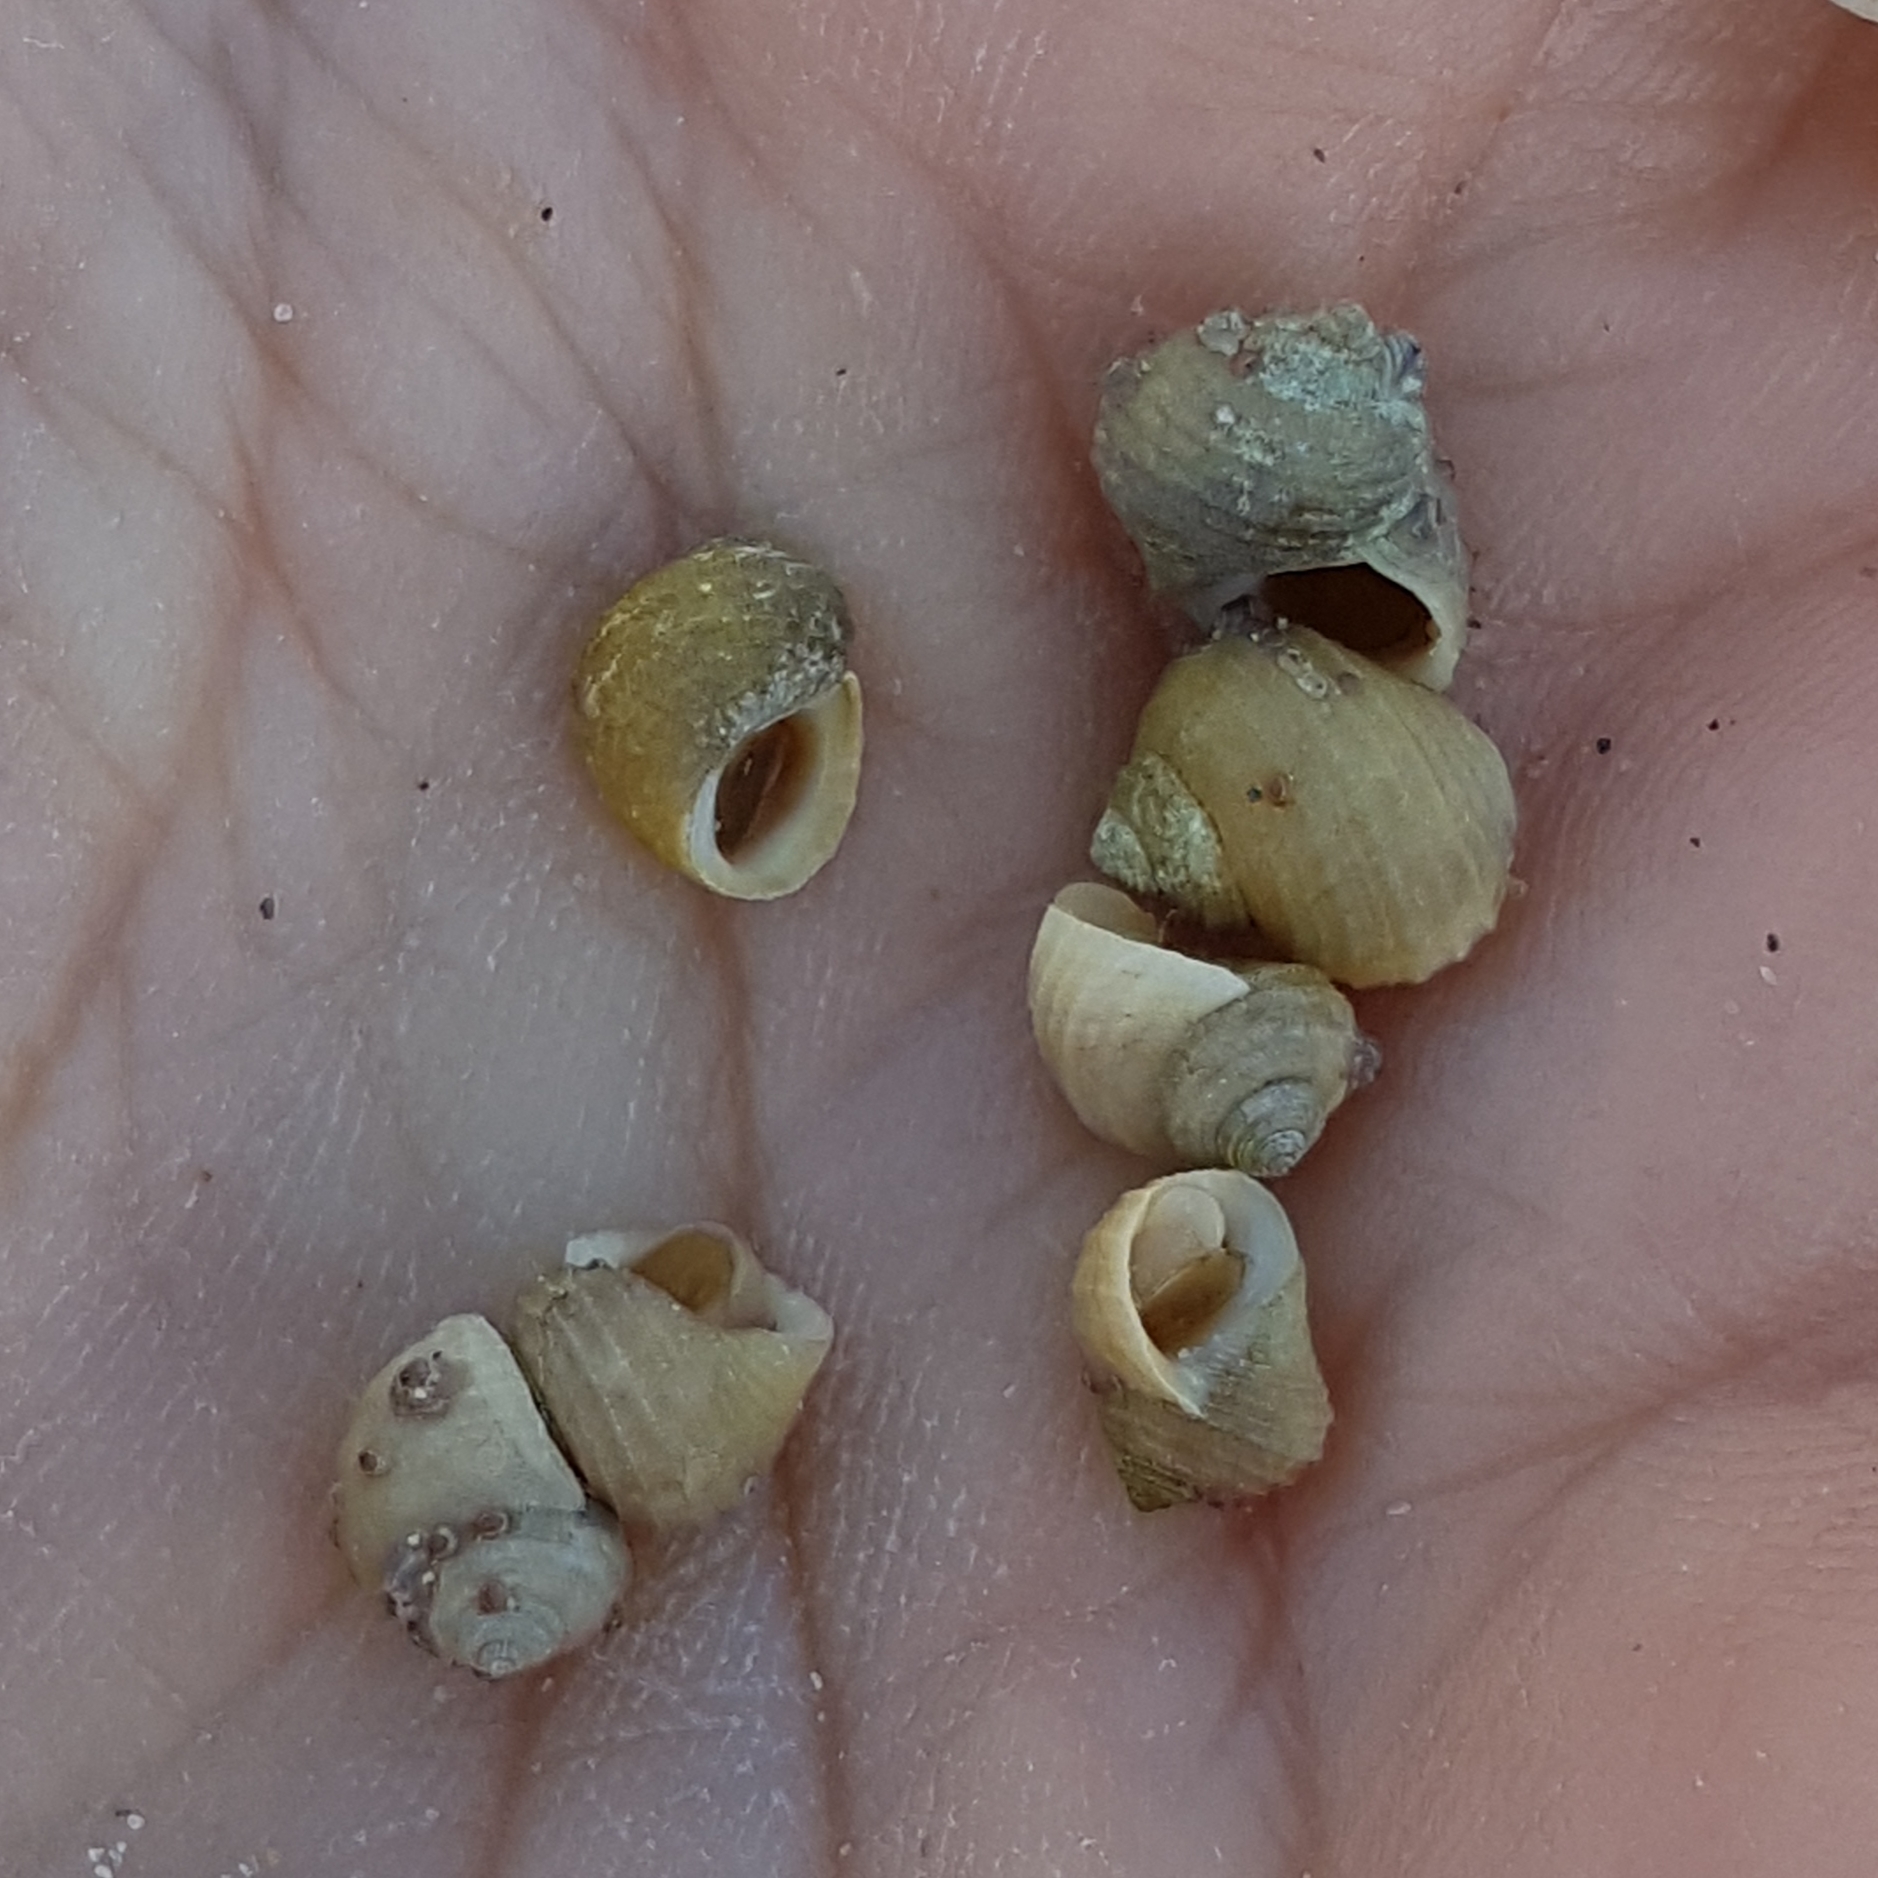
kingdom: Animalia
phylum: Mollusca
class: Gastropoda
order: Littorinimorpha
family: Littorinidae
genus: Littorina
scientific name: Littorina saxatilis
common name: Black-lined periwinkle
